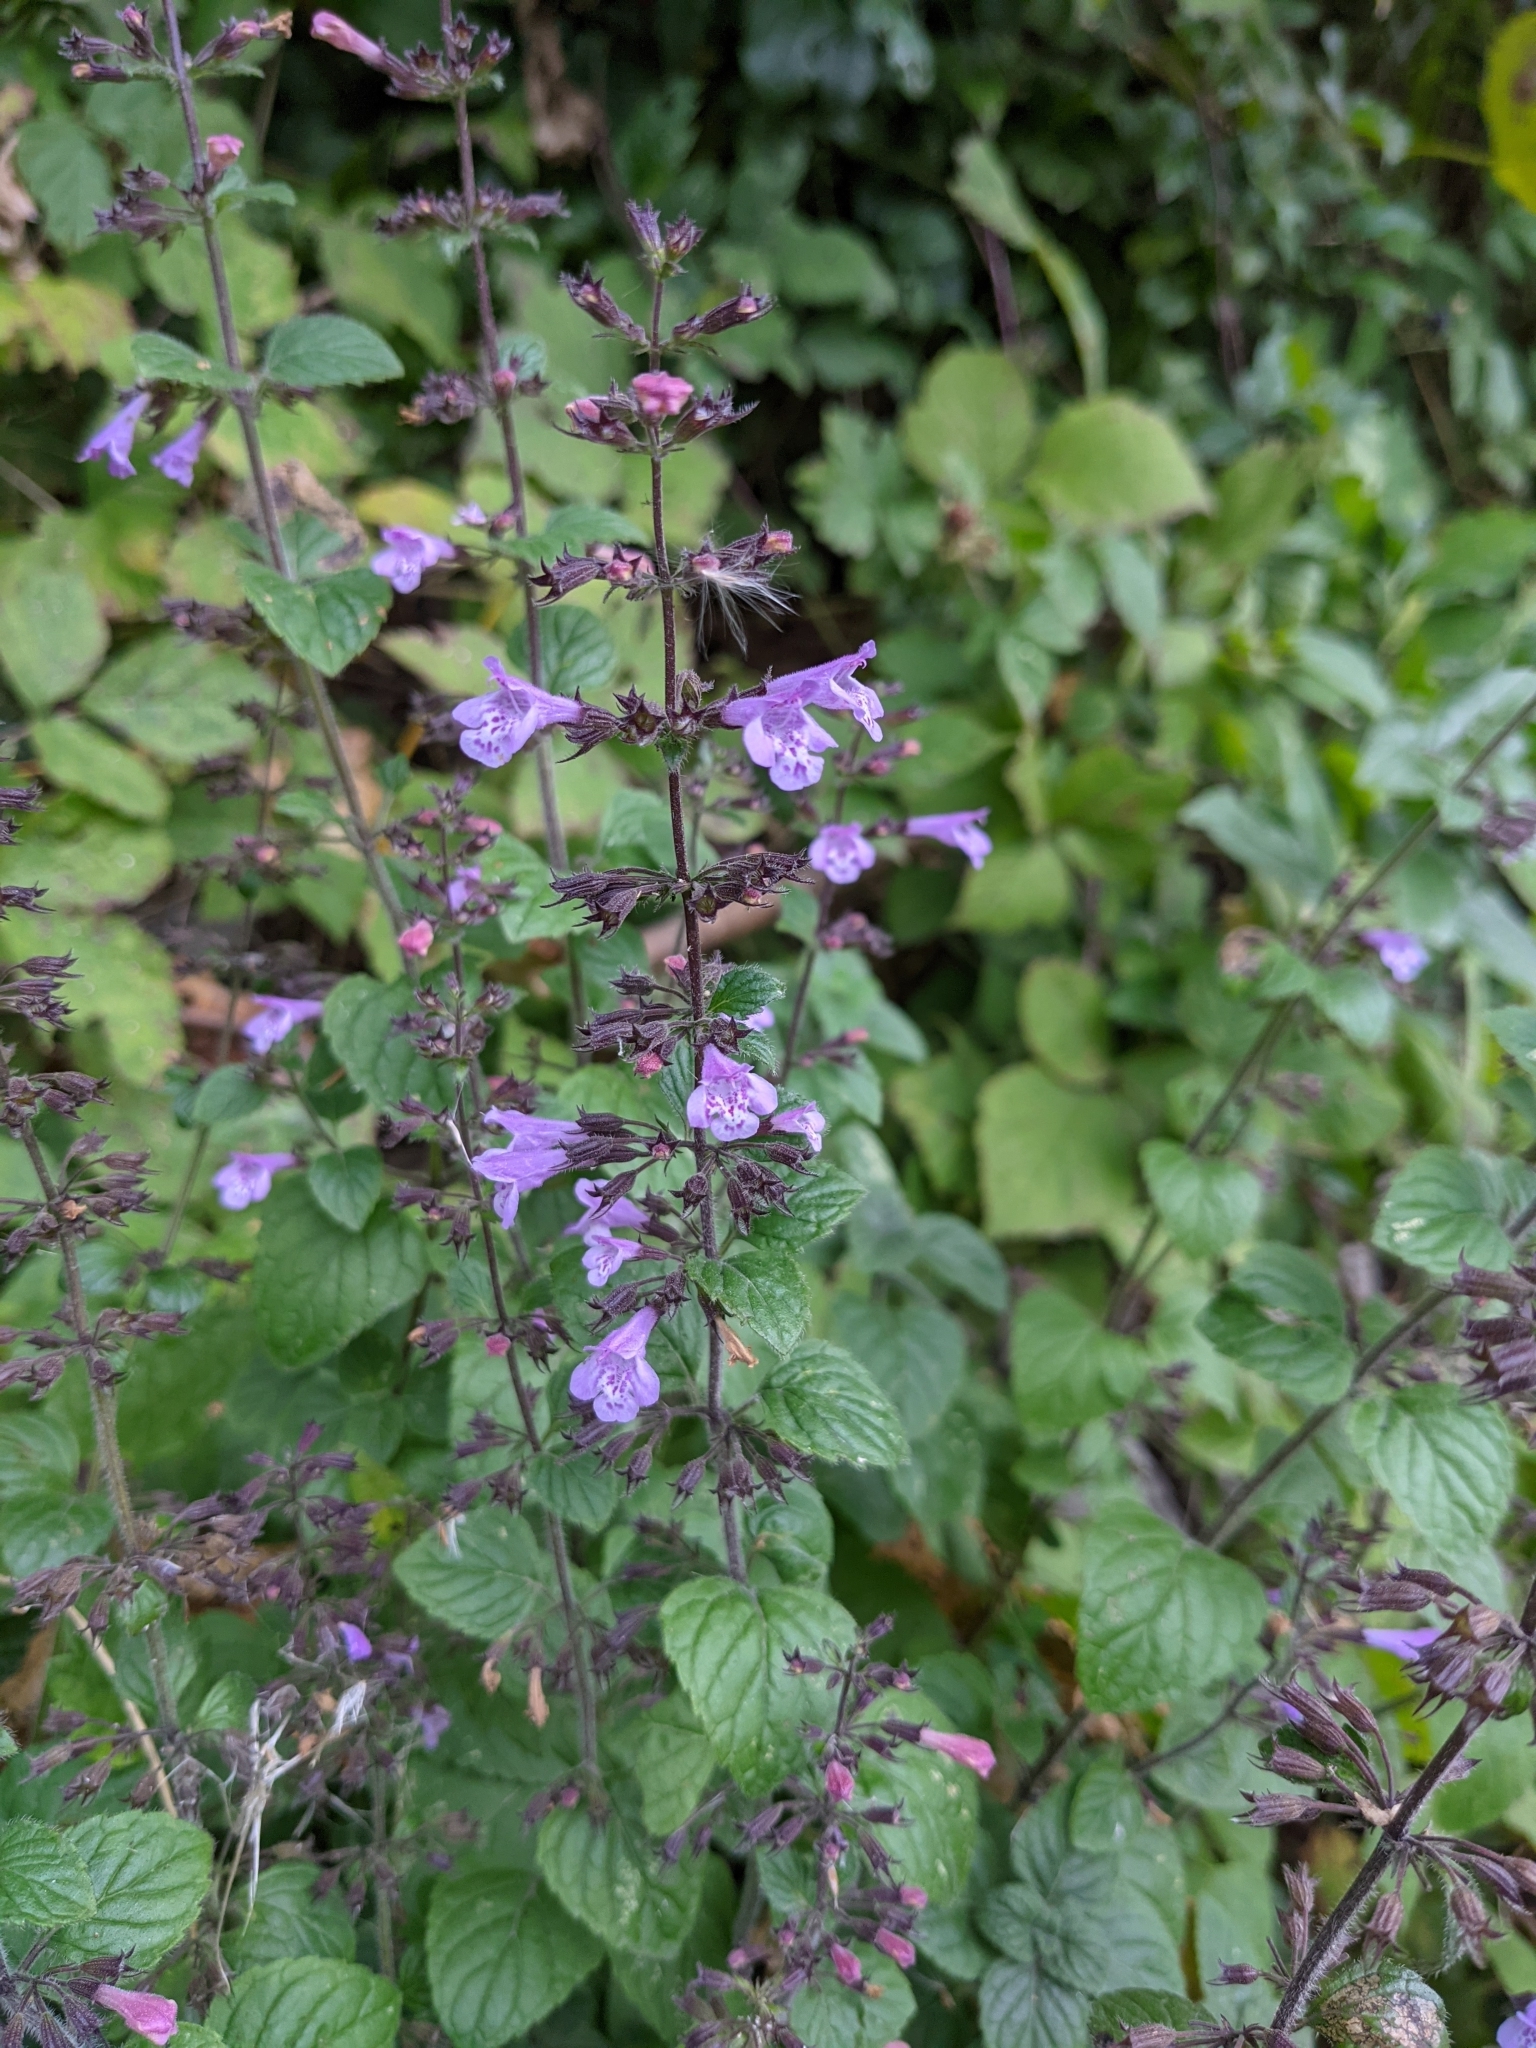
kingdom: Plantae
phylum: Tracheophyta
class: Magnoliopsida
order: Lamiales
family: Lamiaceae
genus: Clinopodium
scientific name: Clinopodium menthifolium
